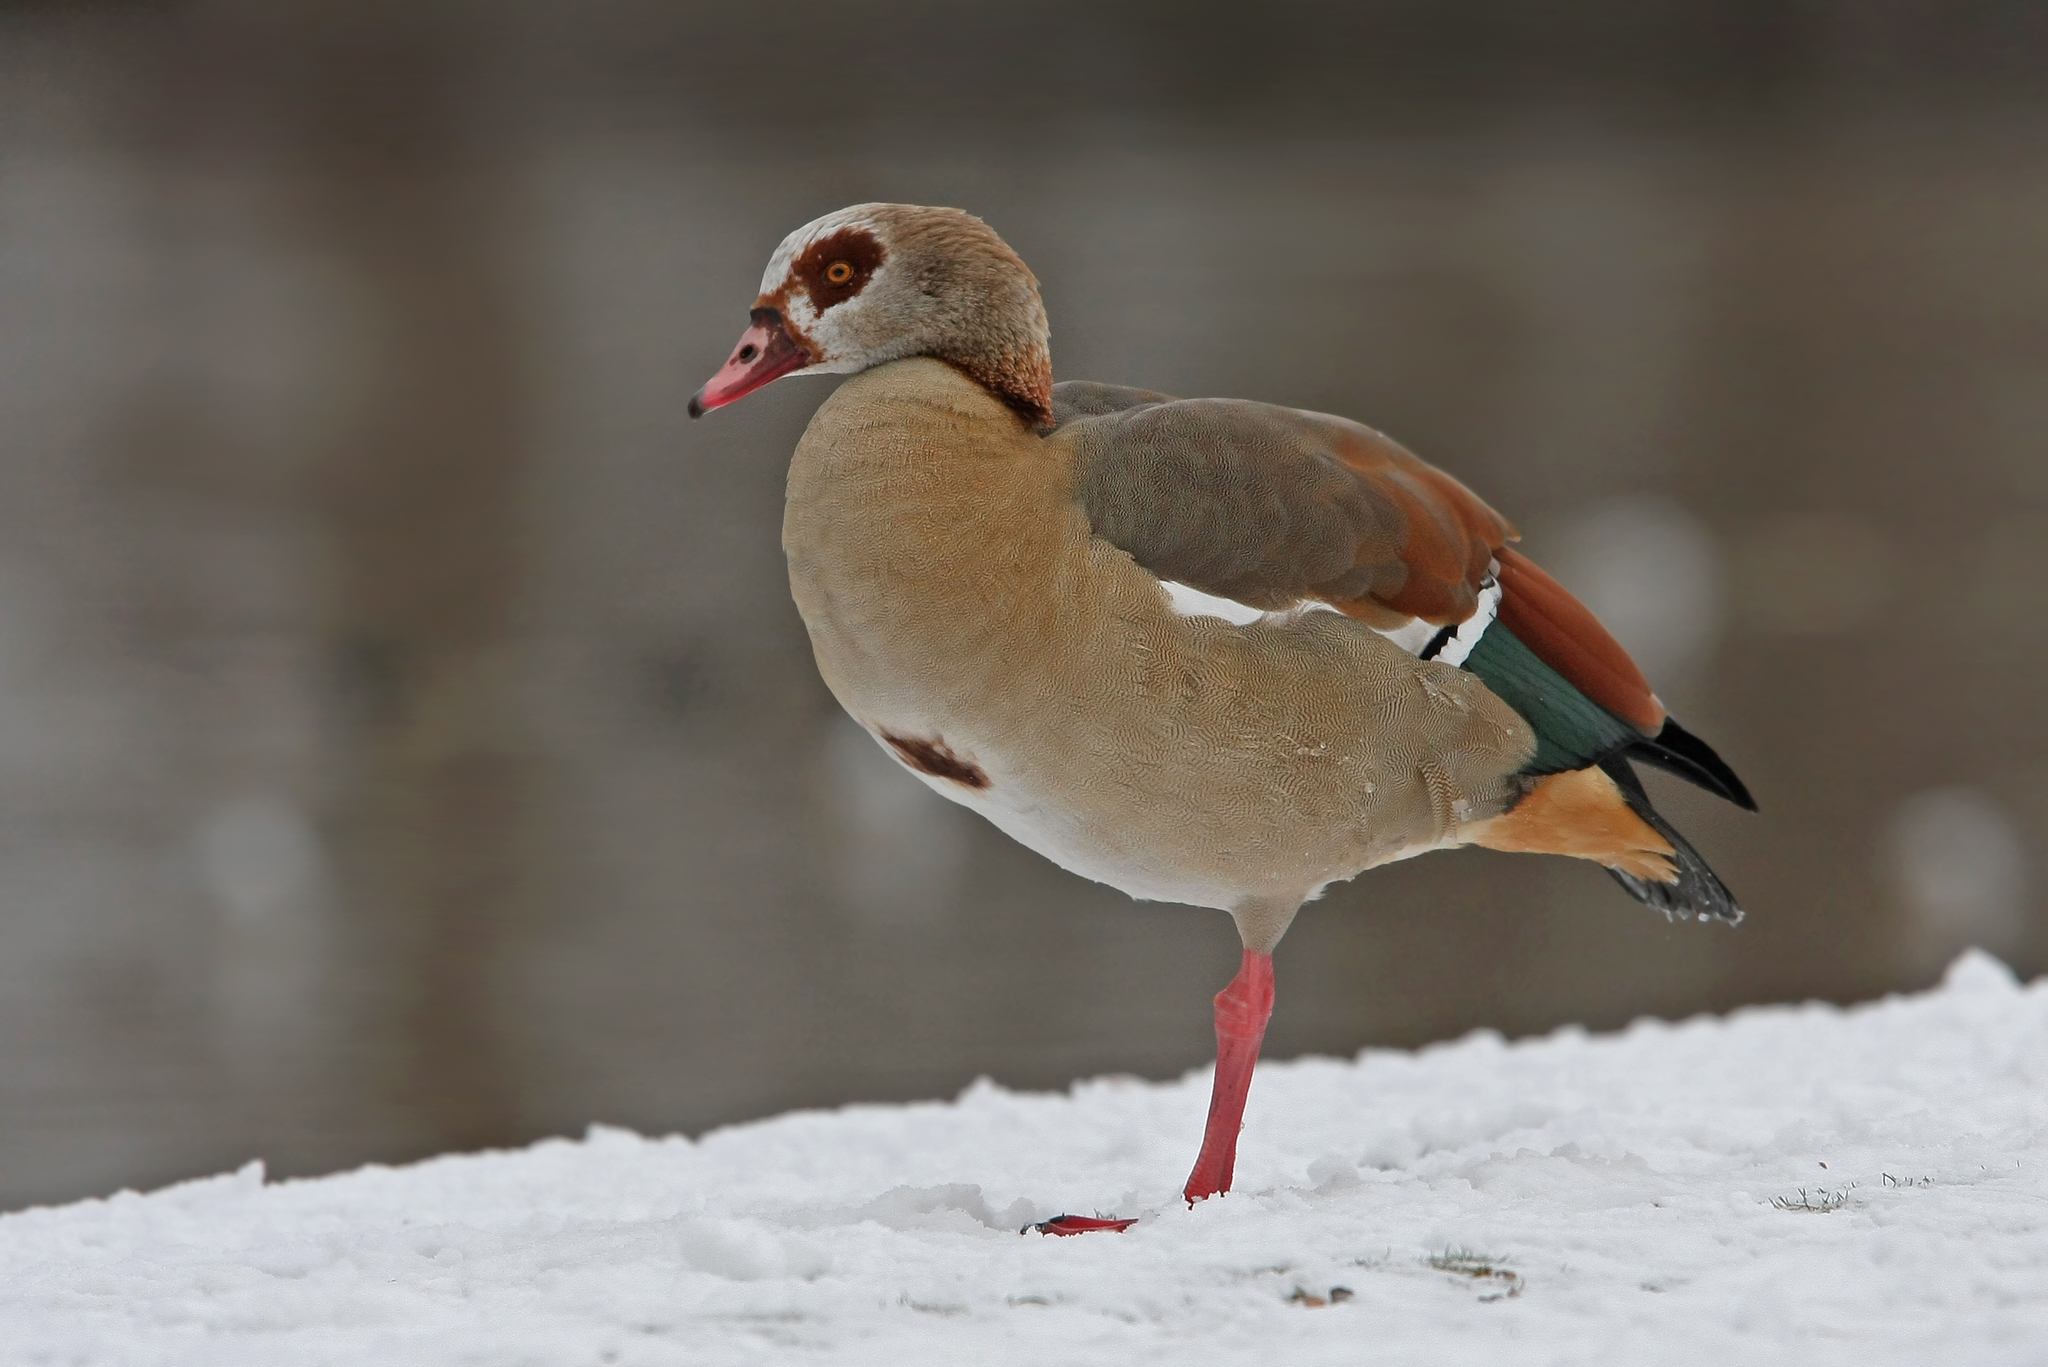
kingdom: Animalia
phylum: Chordata
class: Aves
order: Anseriformes
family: Anatidae
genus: Alopochen
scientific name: Alopochen aegyptiaca
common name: Egyptian goose
